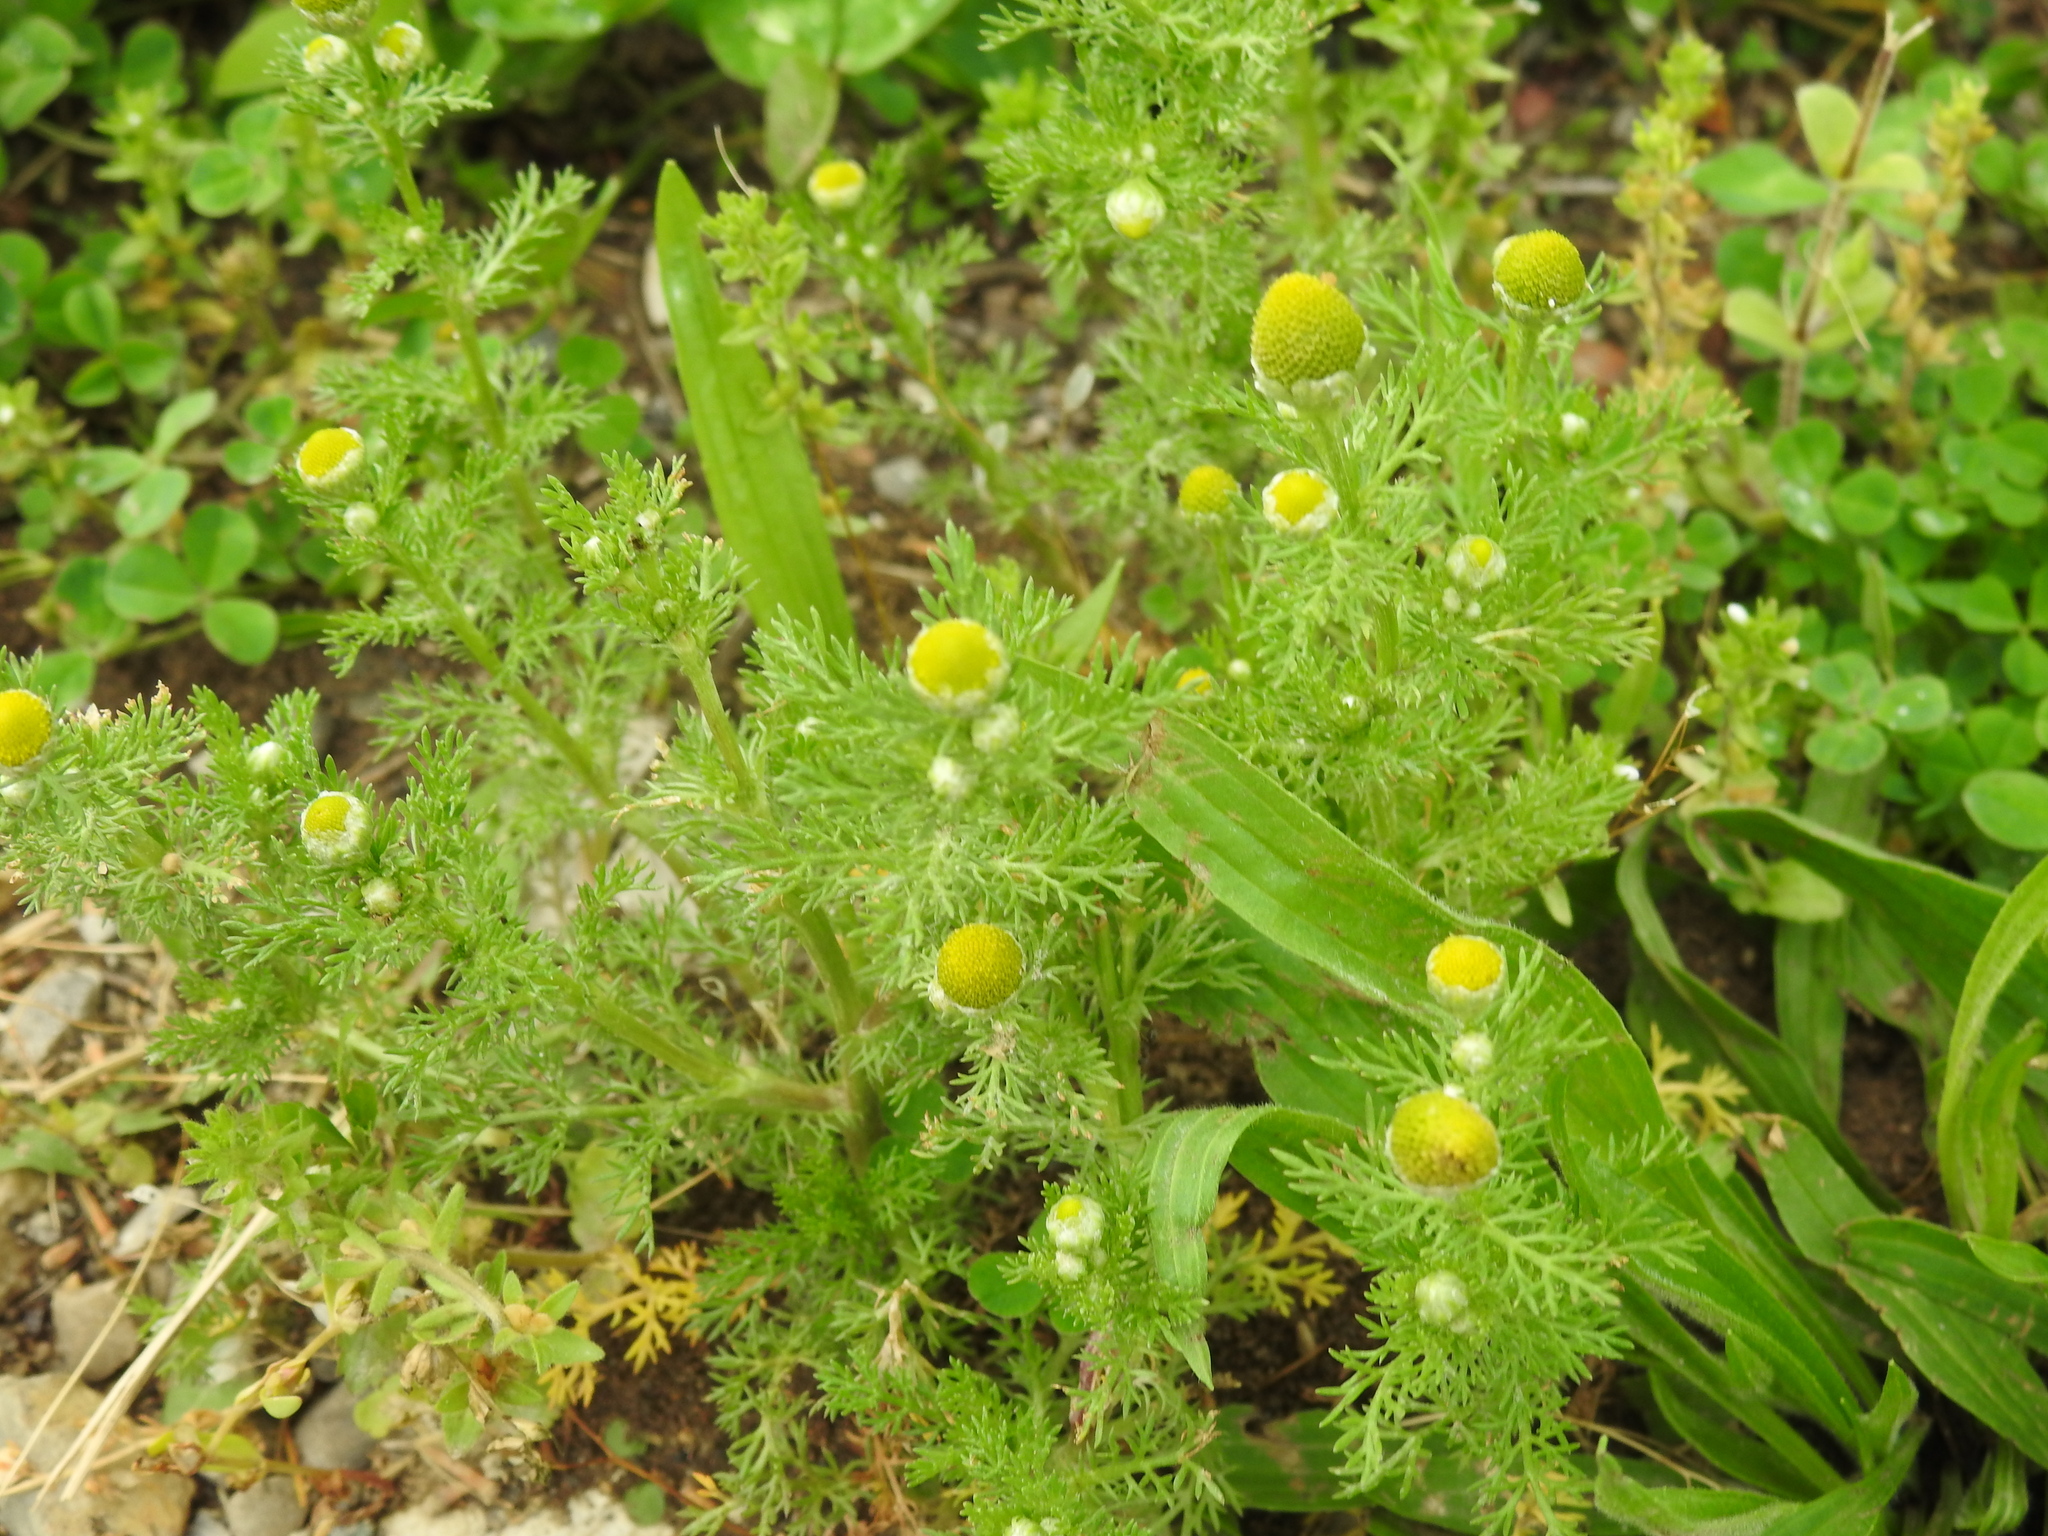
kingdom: Plantae
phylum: Tracheophyta
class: Magnoliopsida
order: Asterales
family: Asteraceae
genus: Matricaria
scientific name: Matricaria discoidea
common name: Disc mayweed
